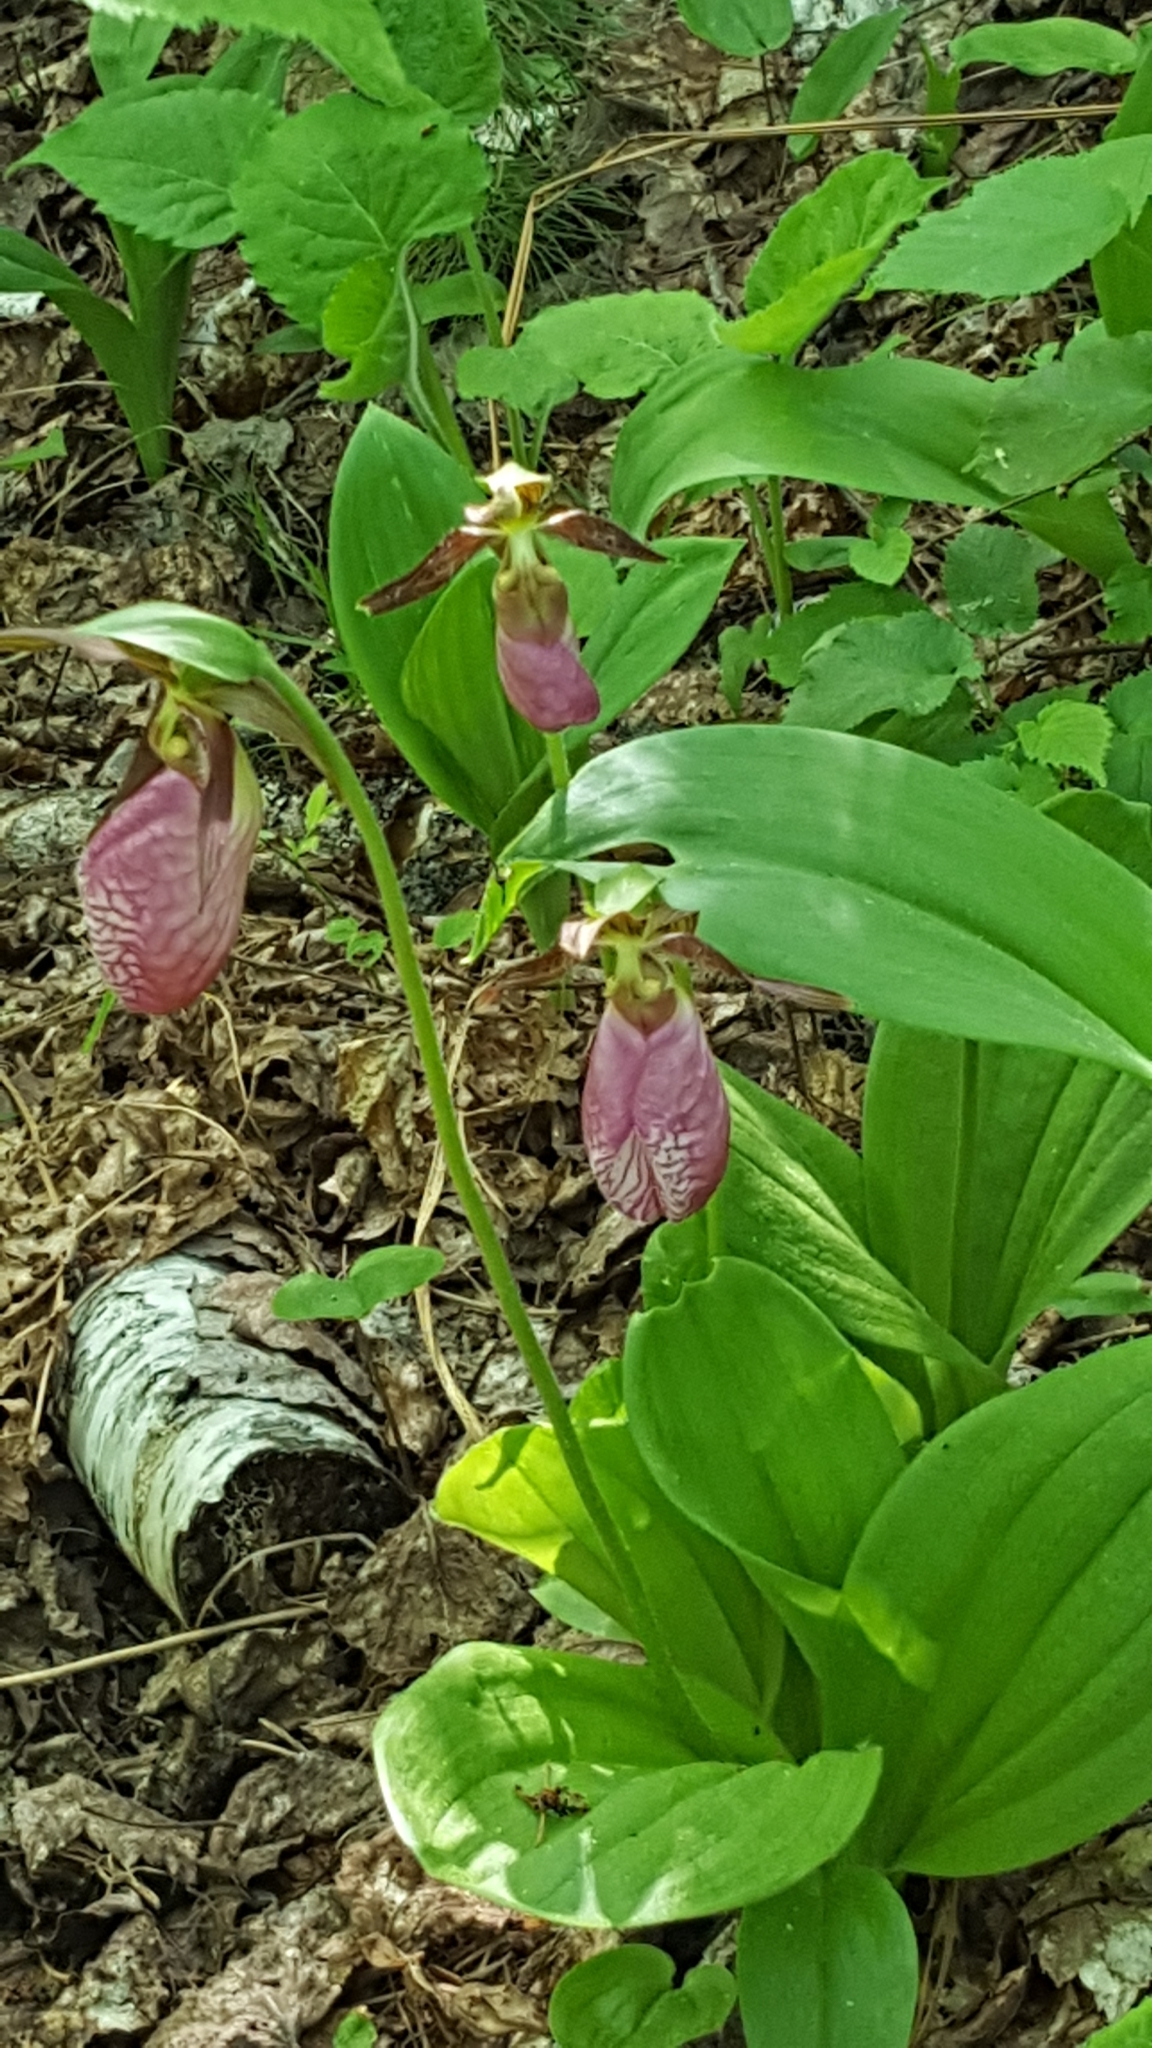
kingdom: Plantae
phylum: Tracheophyta
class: Liliopsida
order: Asparagales
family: Orchidaceae
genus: Cypripedium
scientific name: Cypripedium acaule
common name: Pink lady's-slipper
